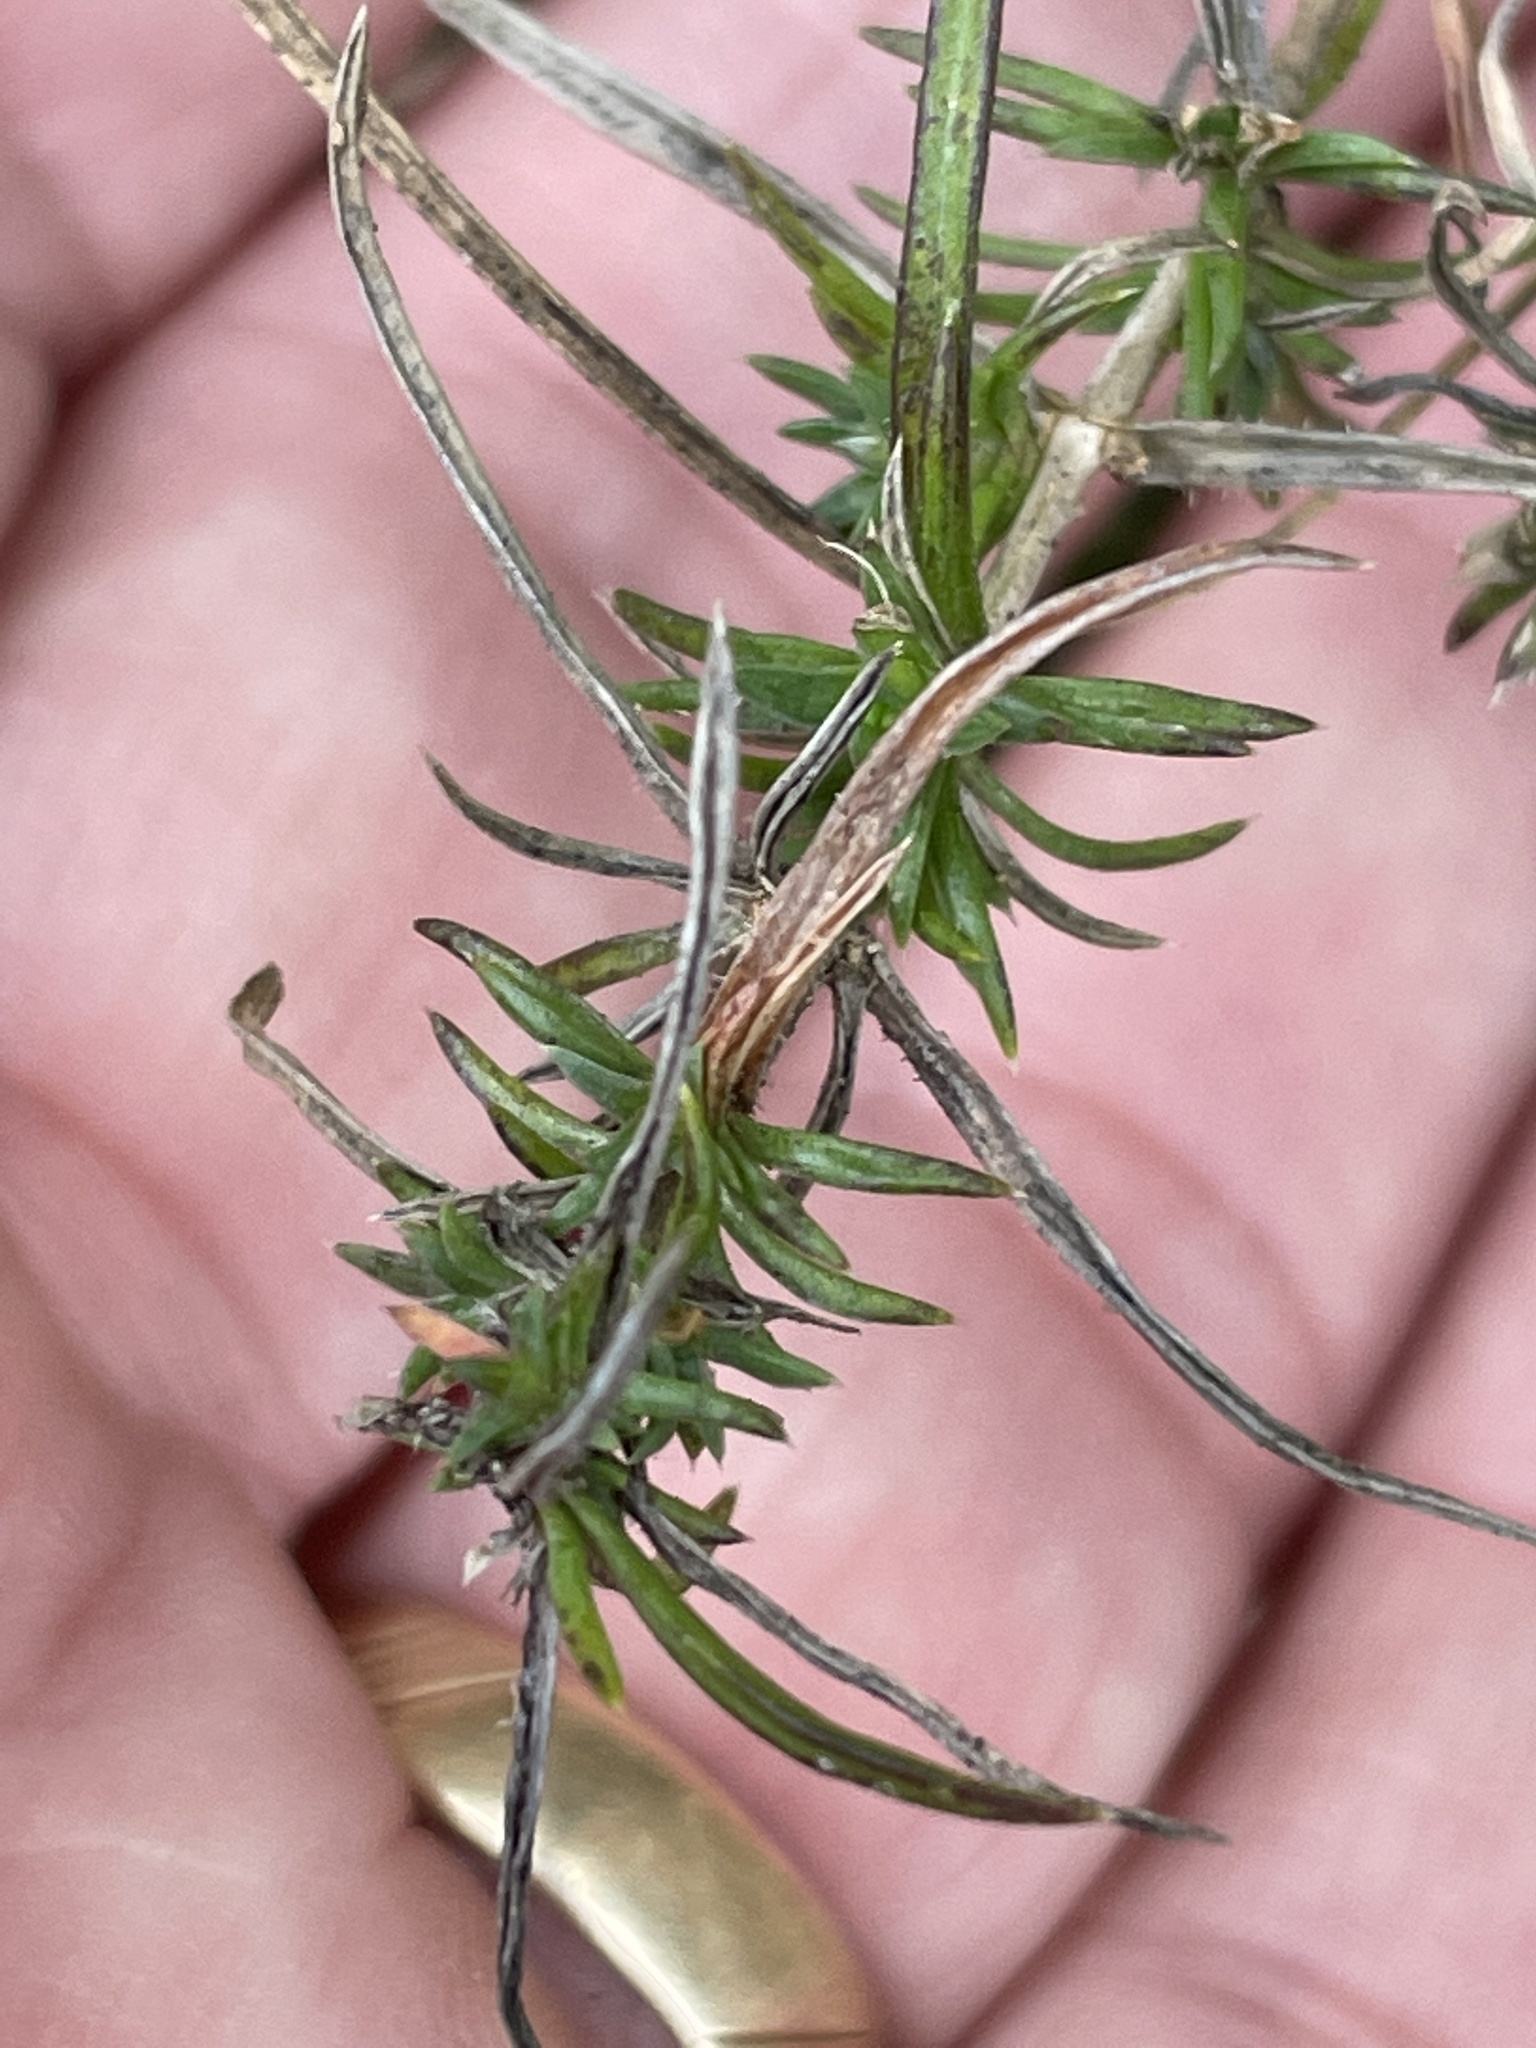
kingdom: Plantae
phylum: Tracheophyta
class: Magnoliopsida
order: Ericales
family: Polemoniaceae
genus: Phlox
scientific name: Phlox nivalis
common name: Trailing phlox
